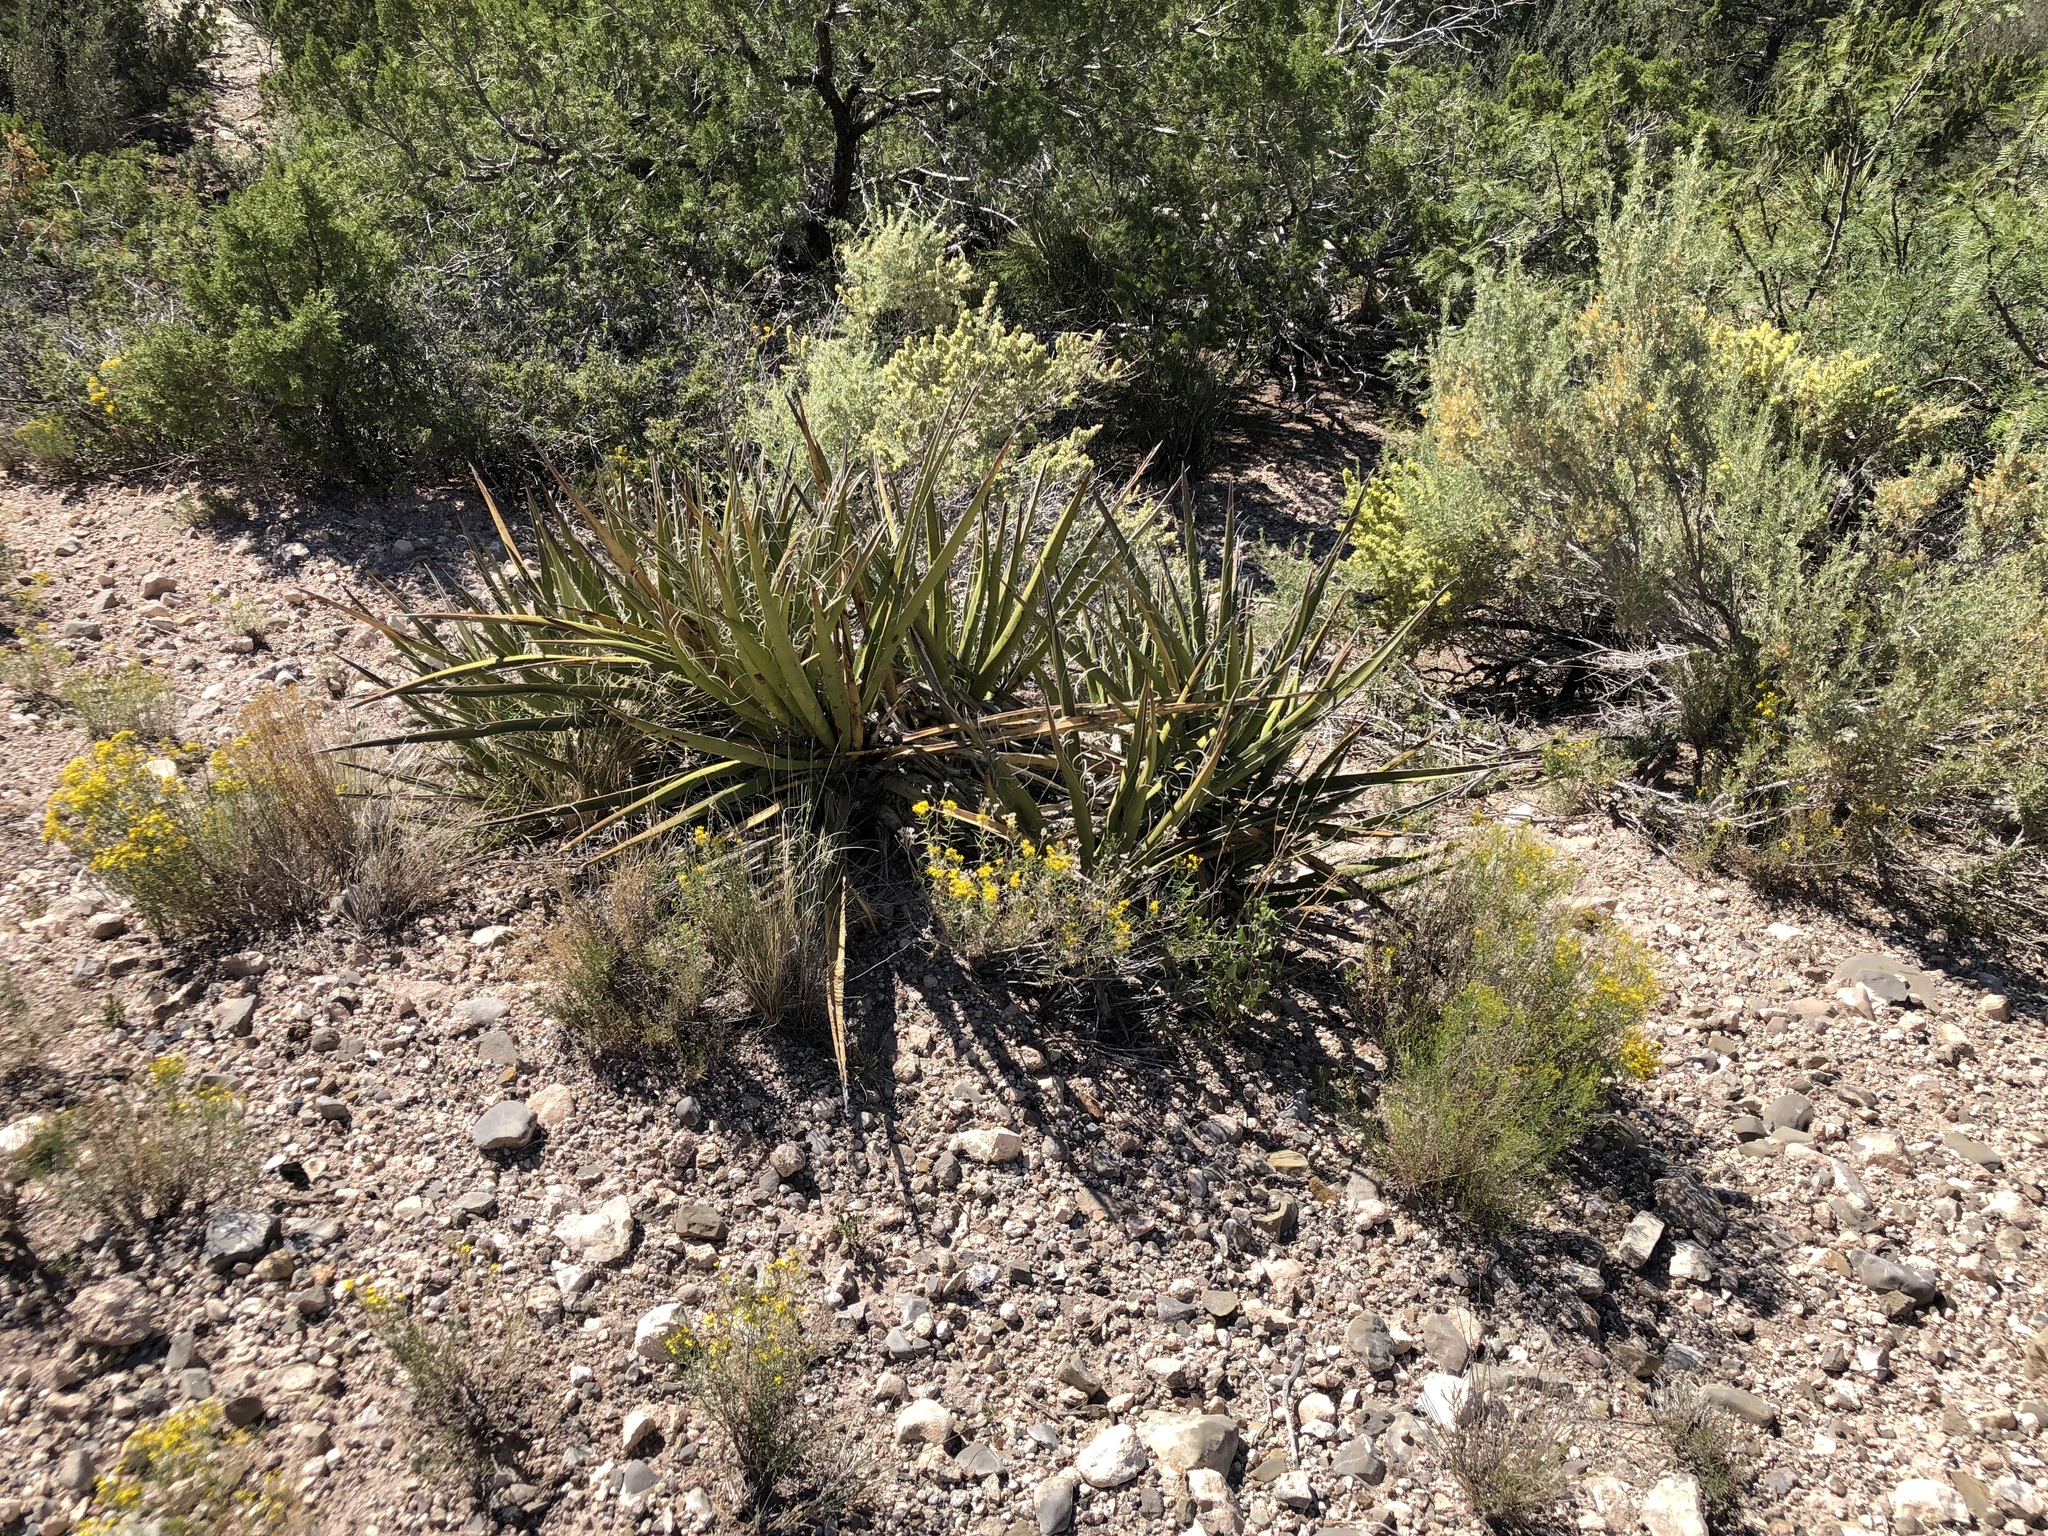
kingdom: Plantae
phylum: Tracheophyta
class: Liliopsida
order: Asparagales
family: Asparagaceae
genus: Yucca
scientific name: Yucca baccata
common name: Banana yucca
